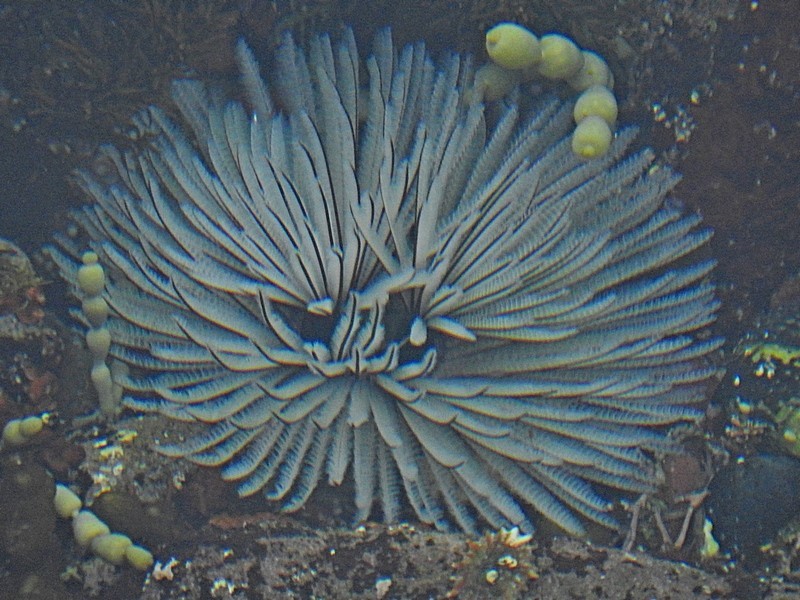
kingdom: Animalia
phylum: Annelida
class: Polychaeta
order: Sabellida
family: Sabellidae
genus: Sabellastarte
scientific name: Sabellastarte australiensis
